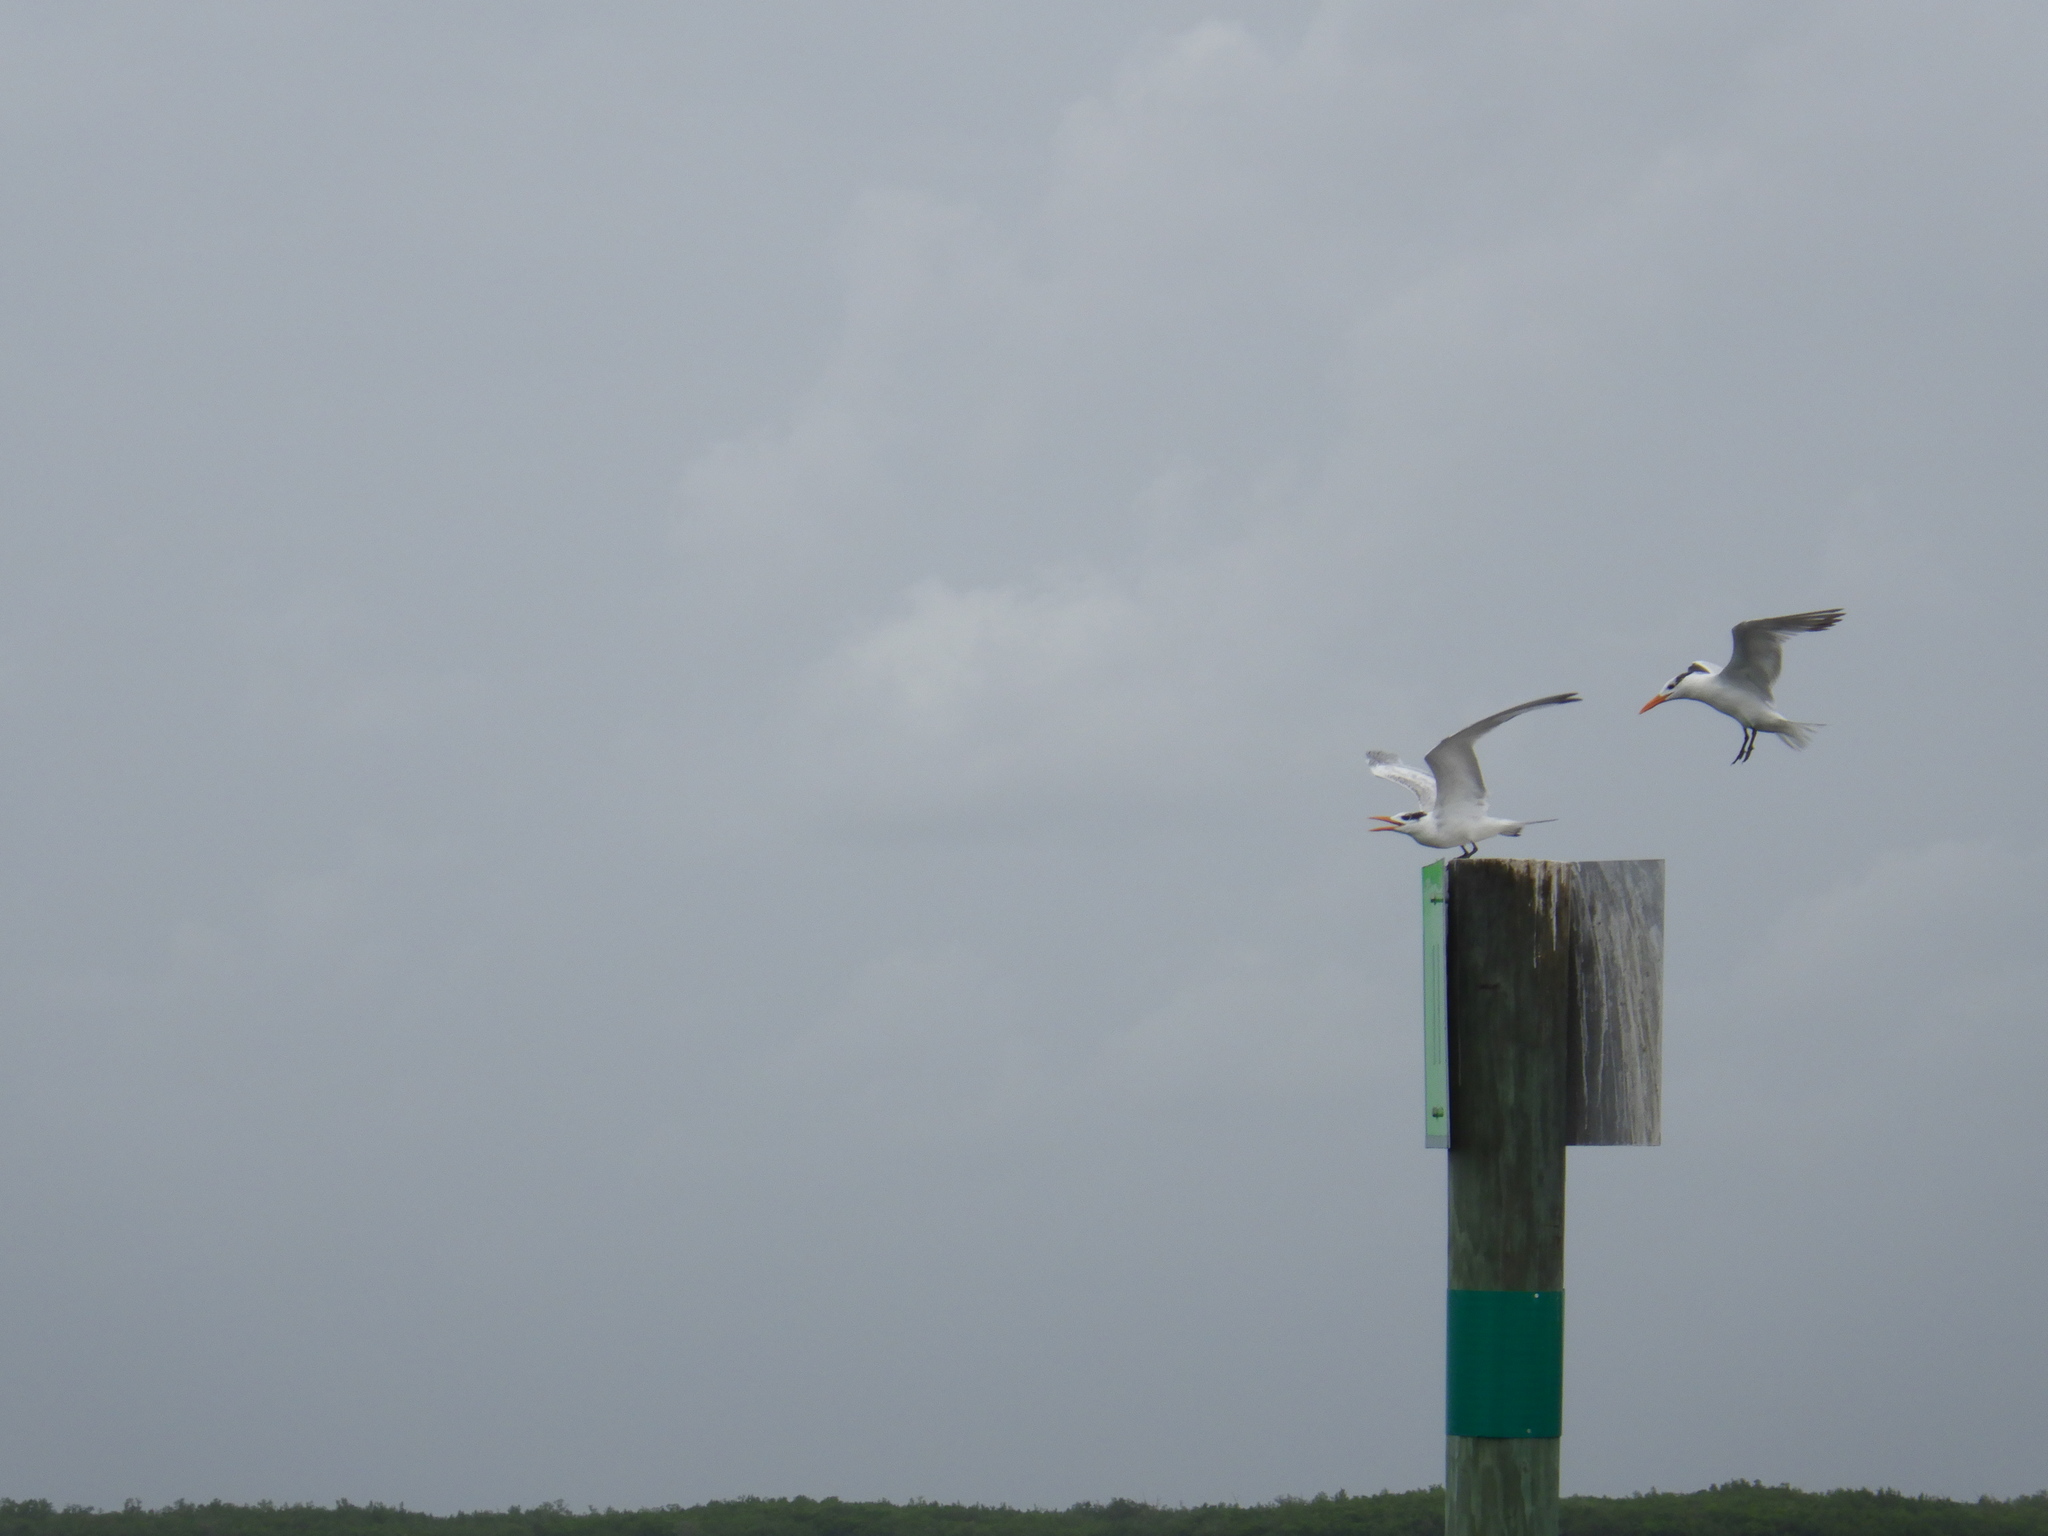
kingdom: Animalia
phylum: Chordata
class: Aves
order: Charadriiformes
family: Laridae
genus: Thalasseus
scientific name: Thalasseus maximus
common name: Royal tern
